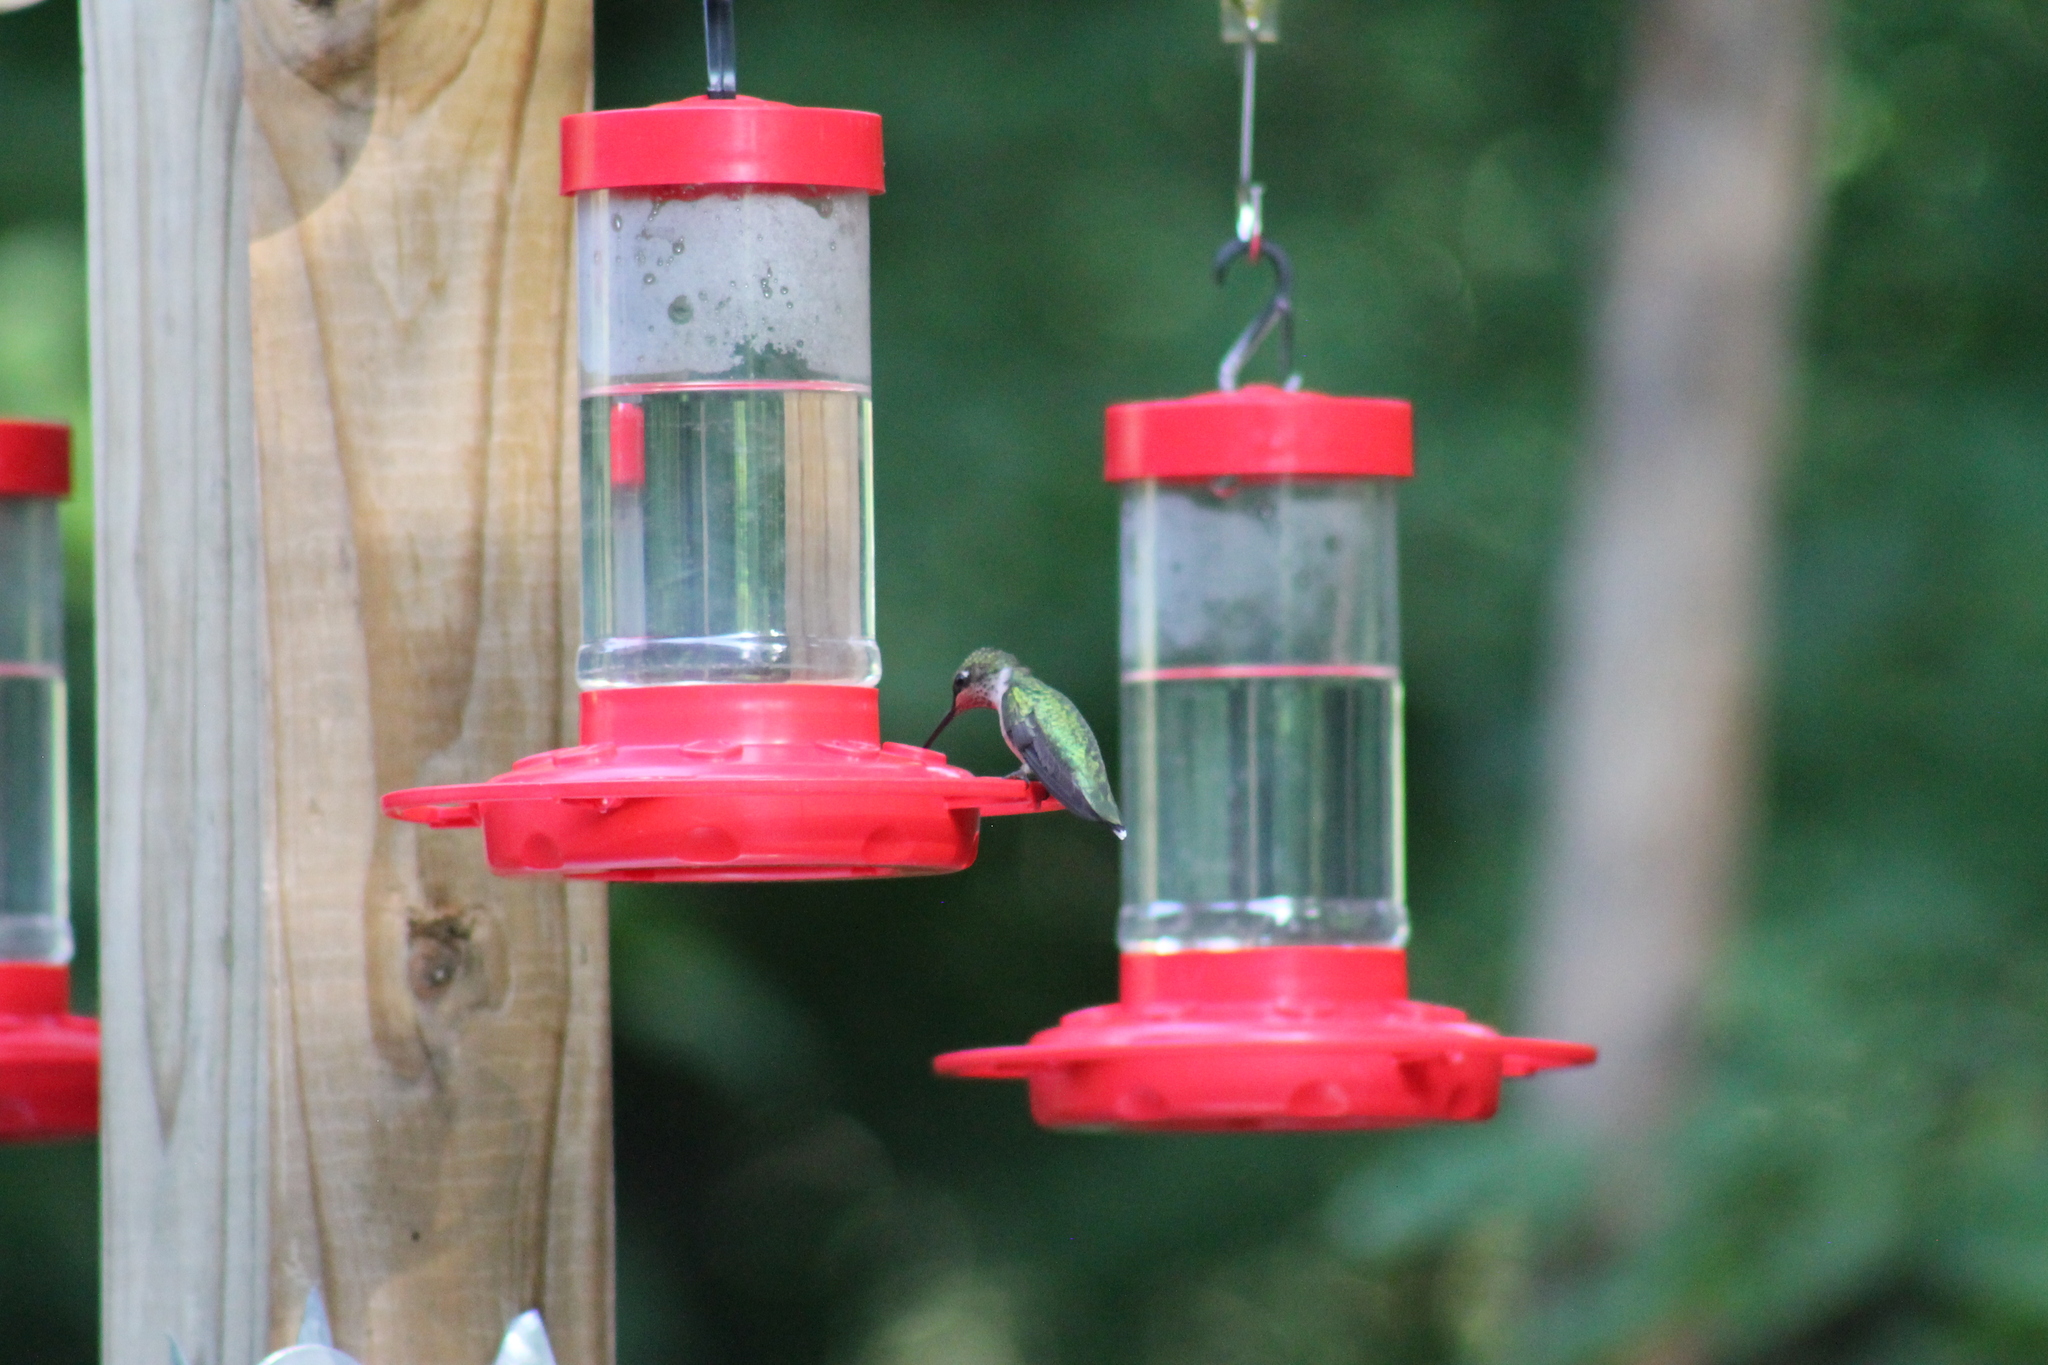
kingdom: Animalia
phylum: Chordata
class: Aves
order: Apodiformes
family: Trochilidae
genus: Archilochus
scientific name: Archilochus colubris
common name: Ruby-throated hummingbird
